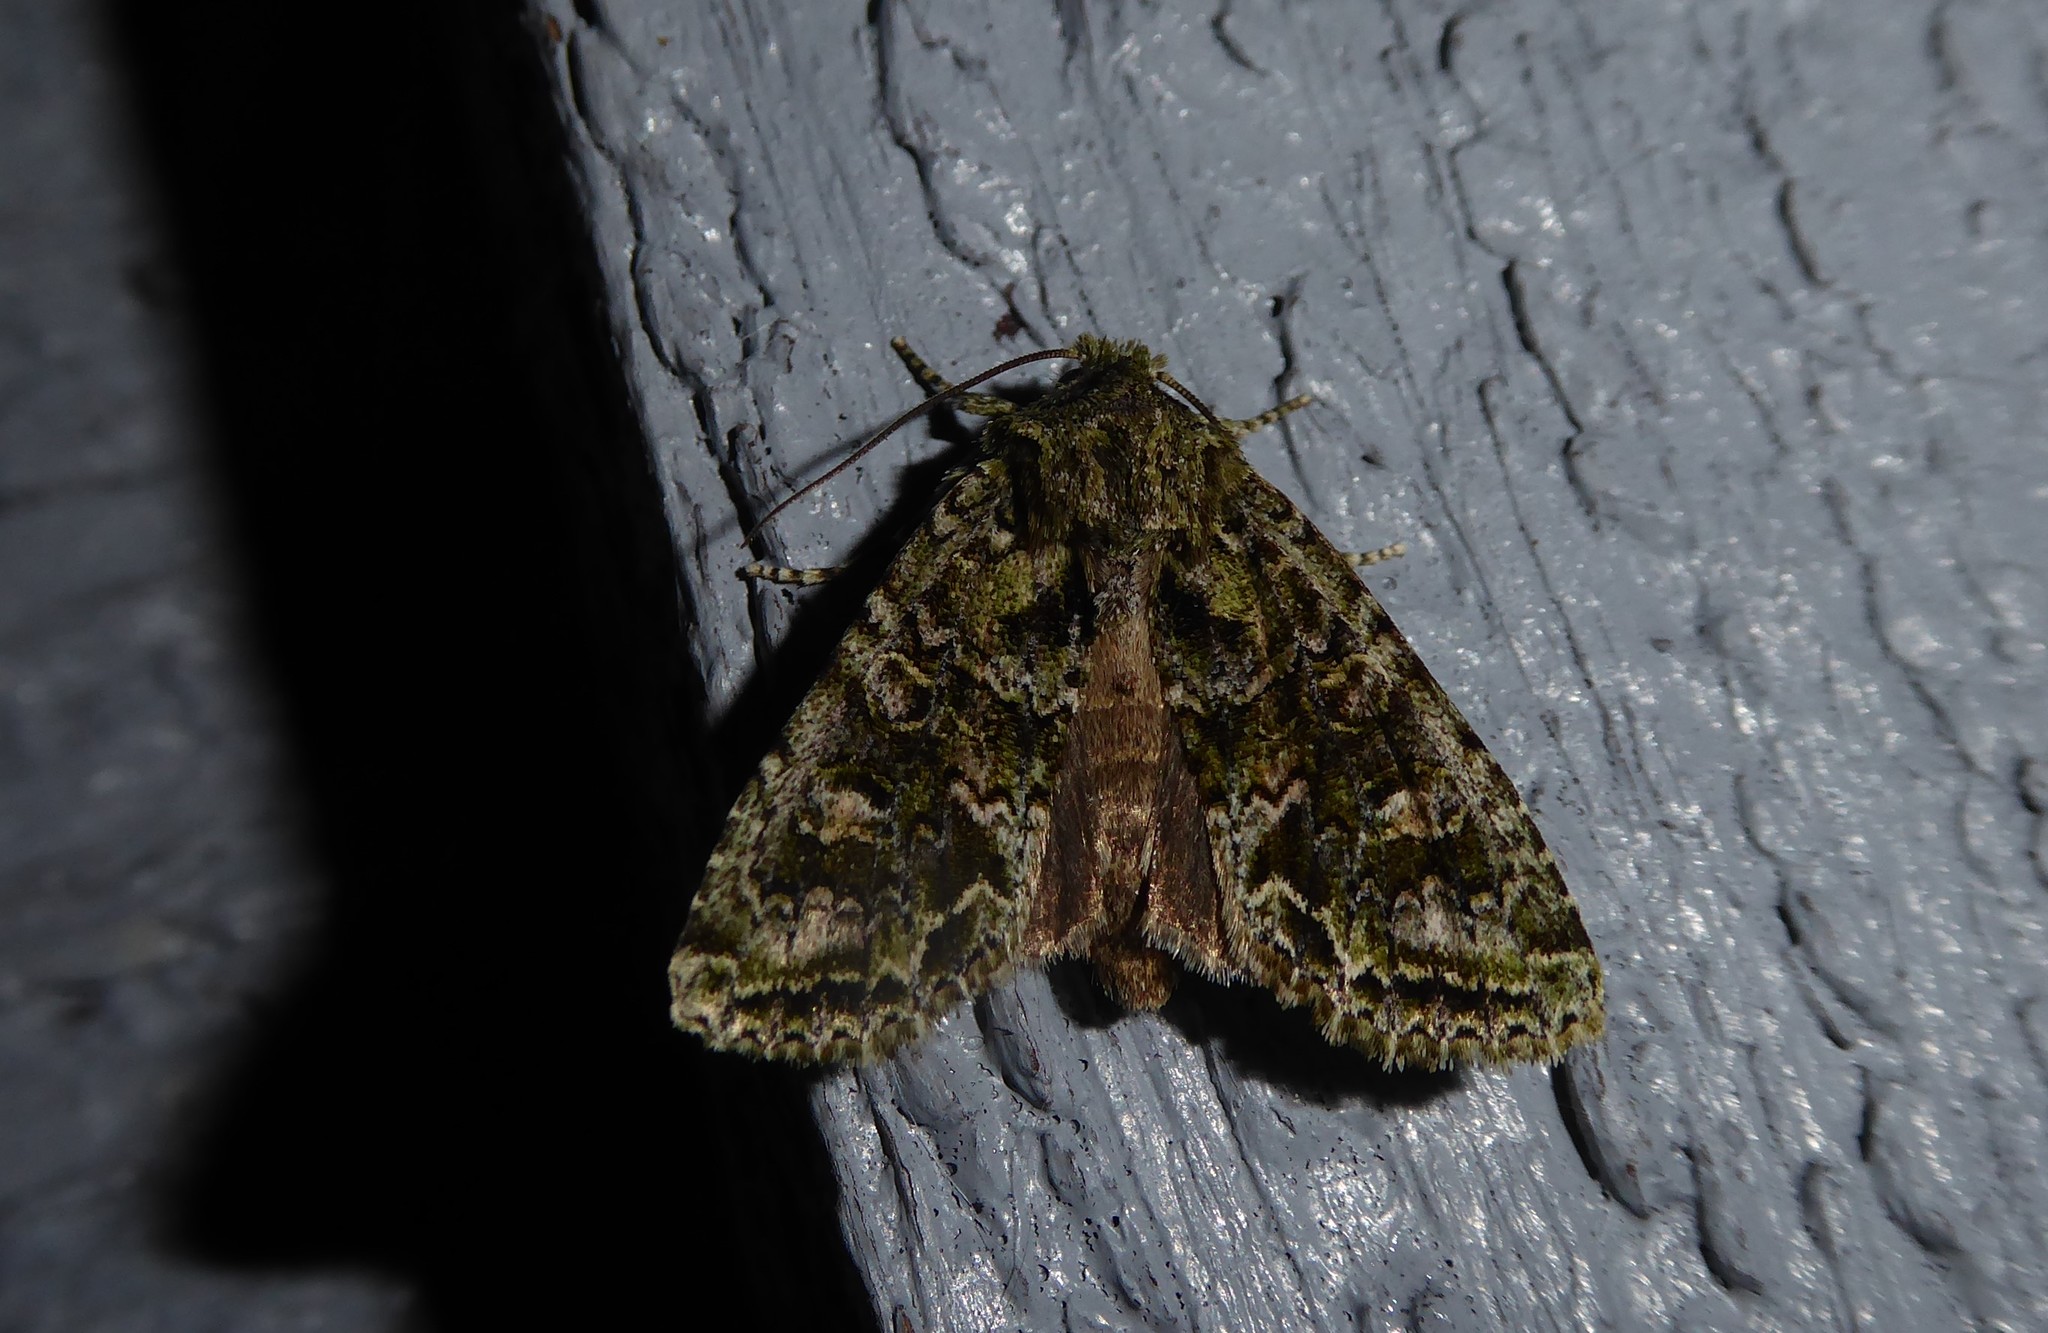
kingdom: Animalia
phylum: Arthropoda
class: Insecta
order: Lepidoptera
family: Noctuidae
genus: Ichneutica
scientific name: Ichneutica
